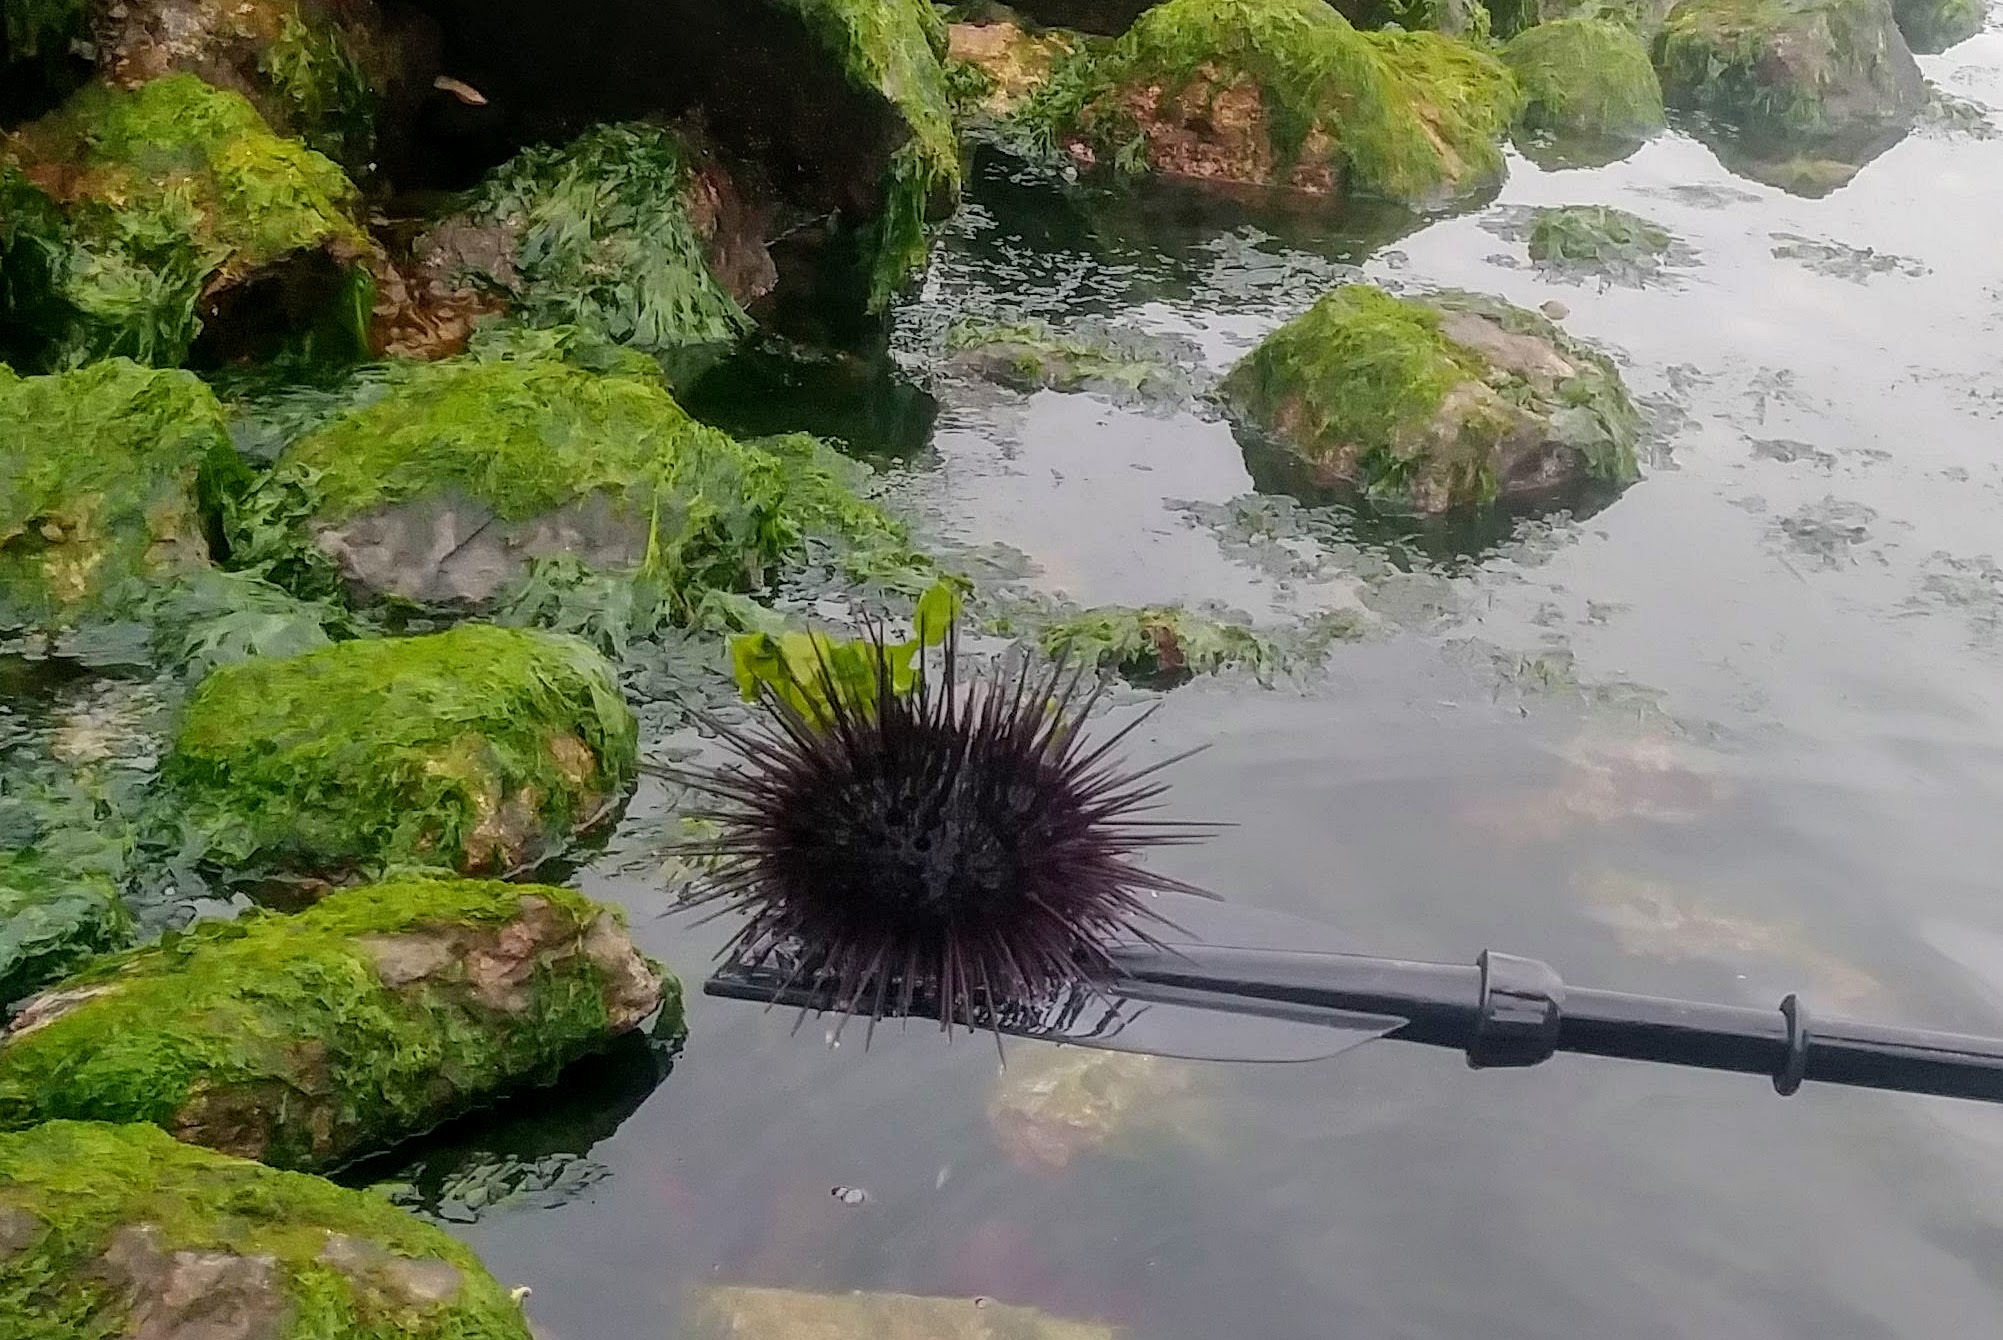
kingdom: Animalia
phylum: Echinodermata
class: Echinoidea
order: Camarodonta
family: Strongylocentrotidae
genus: Mesocentrotus
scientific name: Mesocentrotus franciscanus
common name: Red sea urchin
